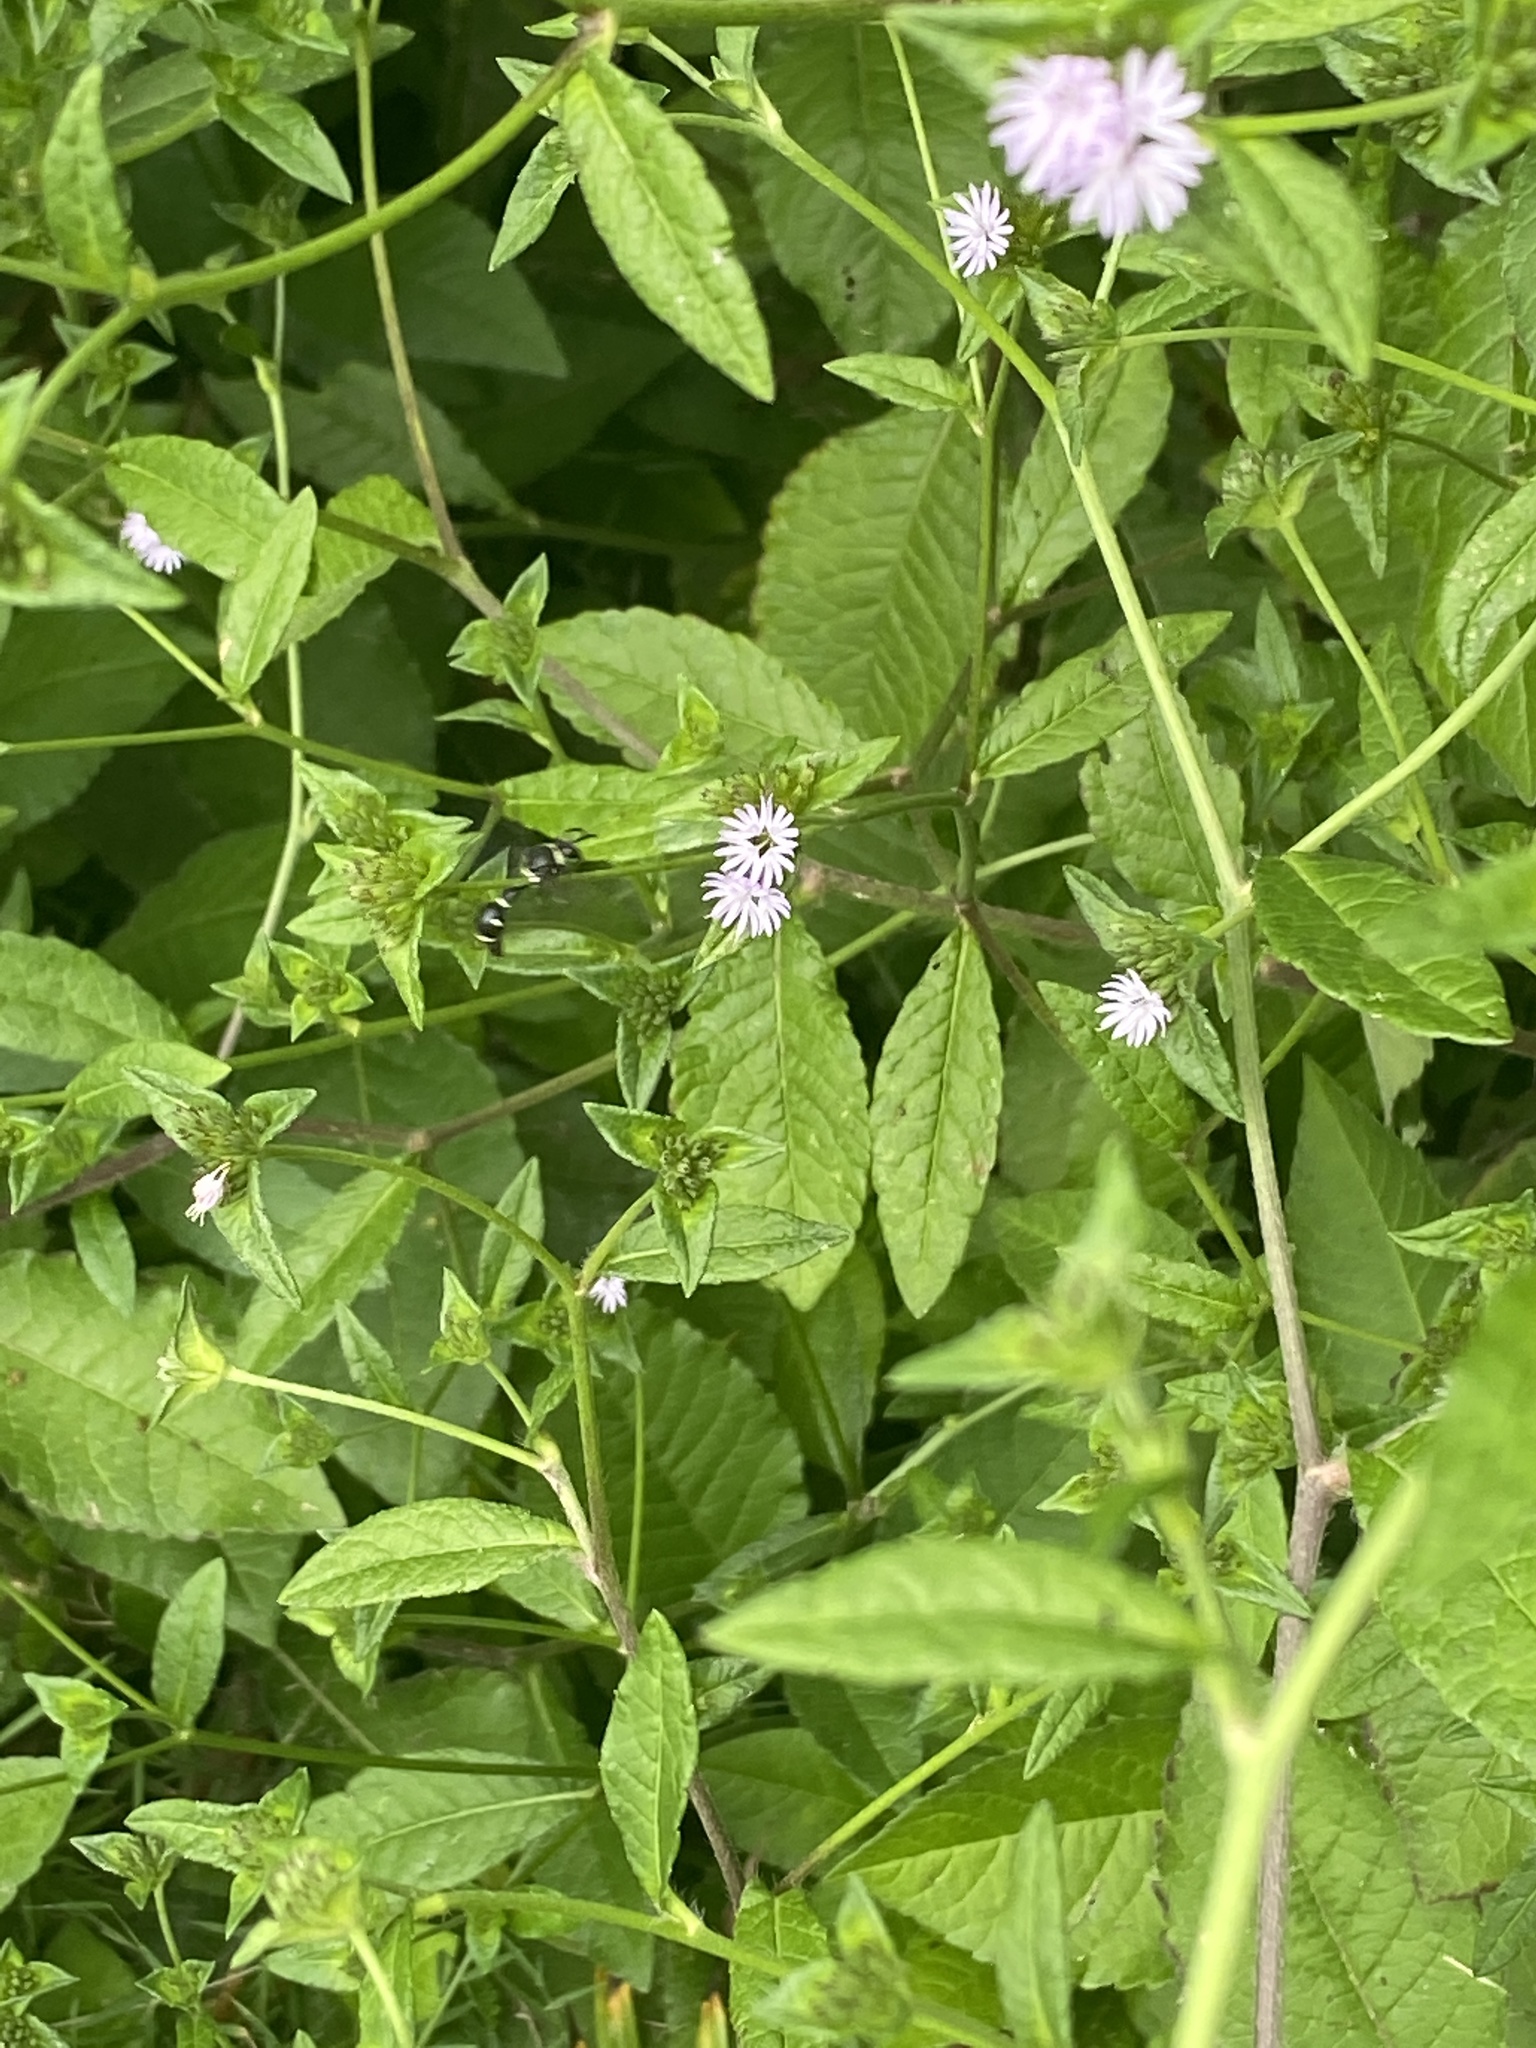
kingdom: Animalia
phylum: Arthropoda
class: Insecta
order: Hymenoptera
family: Vespidae
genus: Eumenes
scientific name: Eumenes fraternus
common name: Fraternal potter wasp
